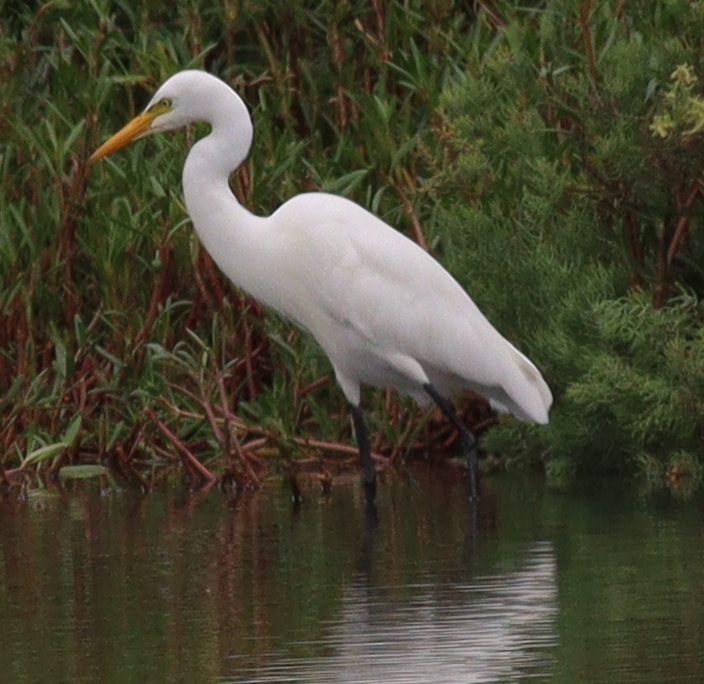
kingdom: Animalia
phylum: Chordata
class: Aves
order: Pelecaniformes
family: Ardeidae
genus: Ardea
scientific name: Ardea alba
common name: Great egret
